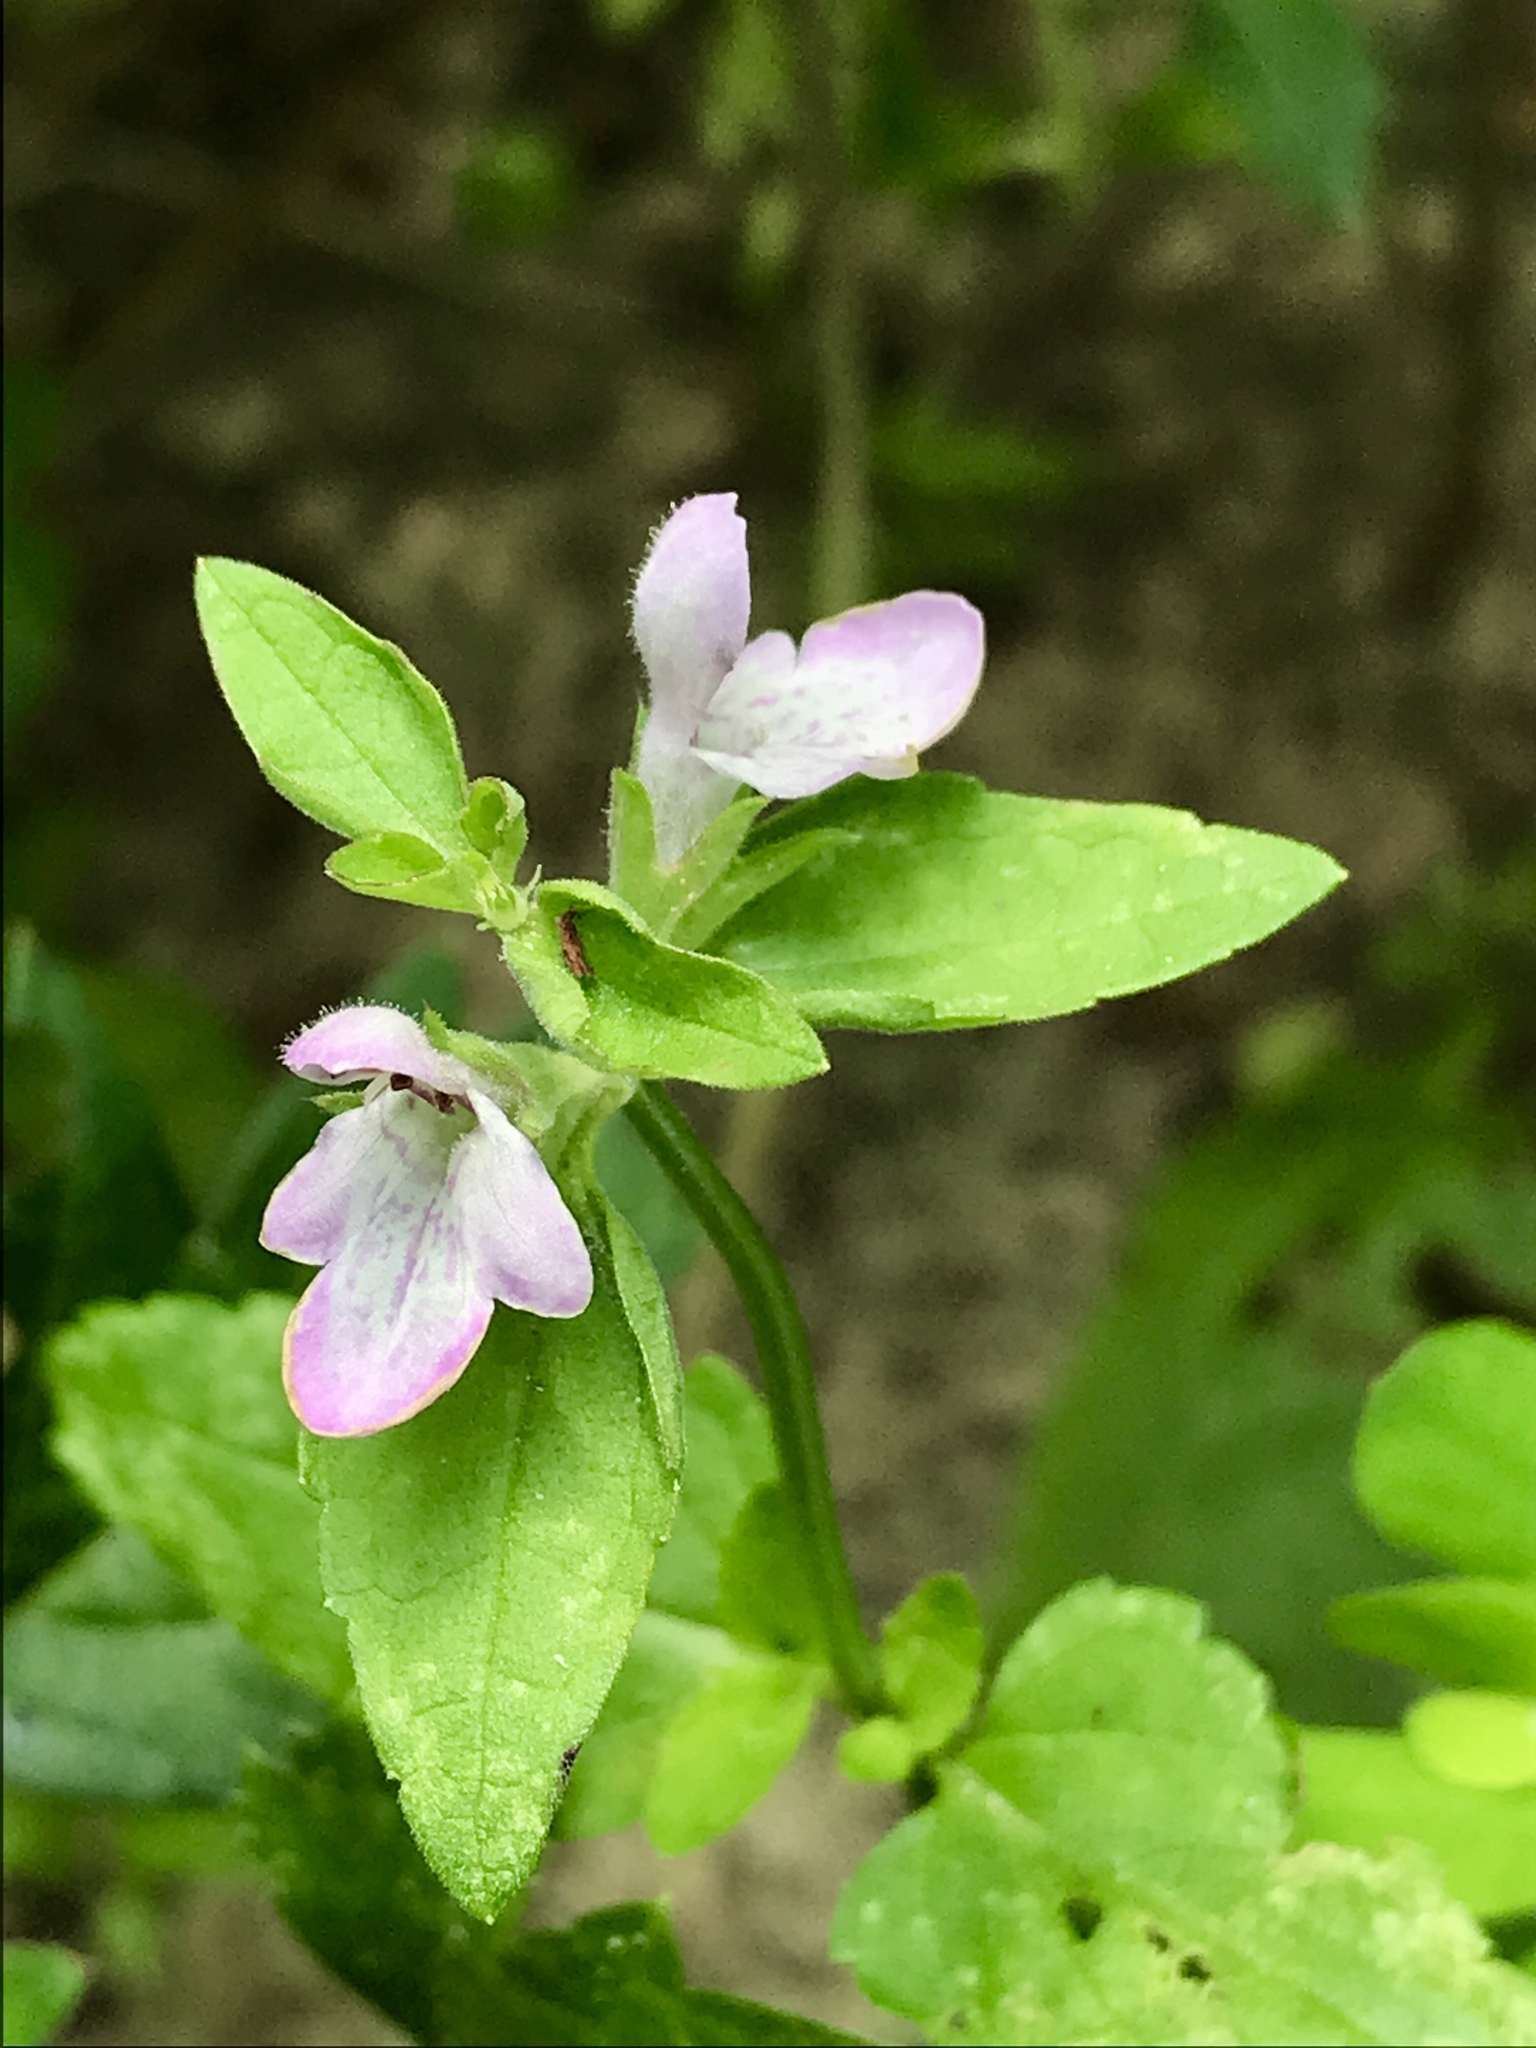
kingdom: Plantae
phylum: Tracheophyta
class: Magnoliopsida
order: Lamiales
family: Lamiaceae
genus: Stachys
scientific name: Stachys floridana
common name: Florida betony
